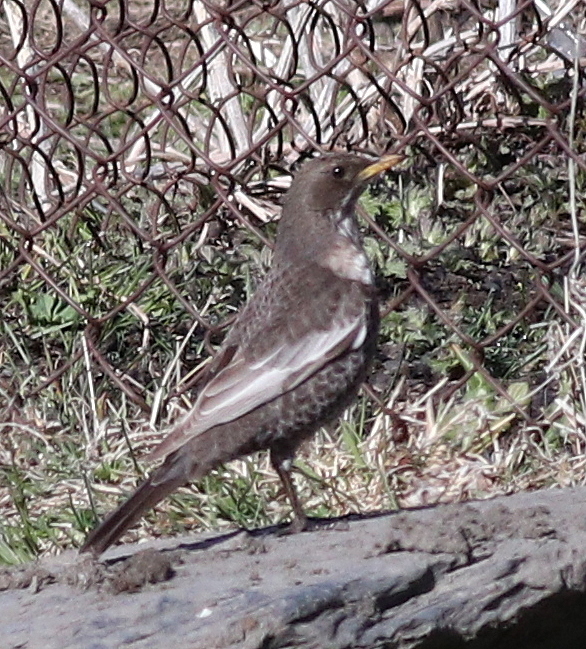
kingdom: Animalia
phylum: Chordata
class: Aves
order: Passeriformes
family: Turdidae
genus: Turdus
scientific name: Turdus torquatus
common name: Ring ouzel
